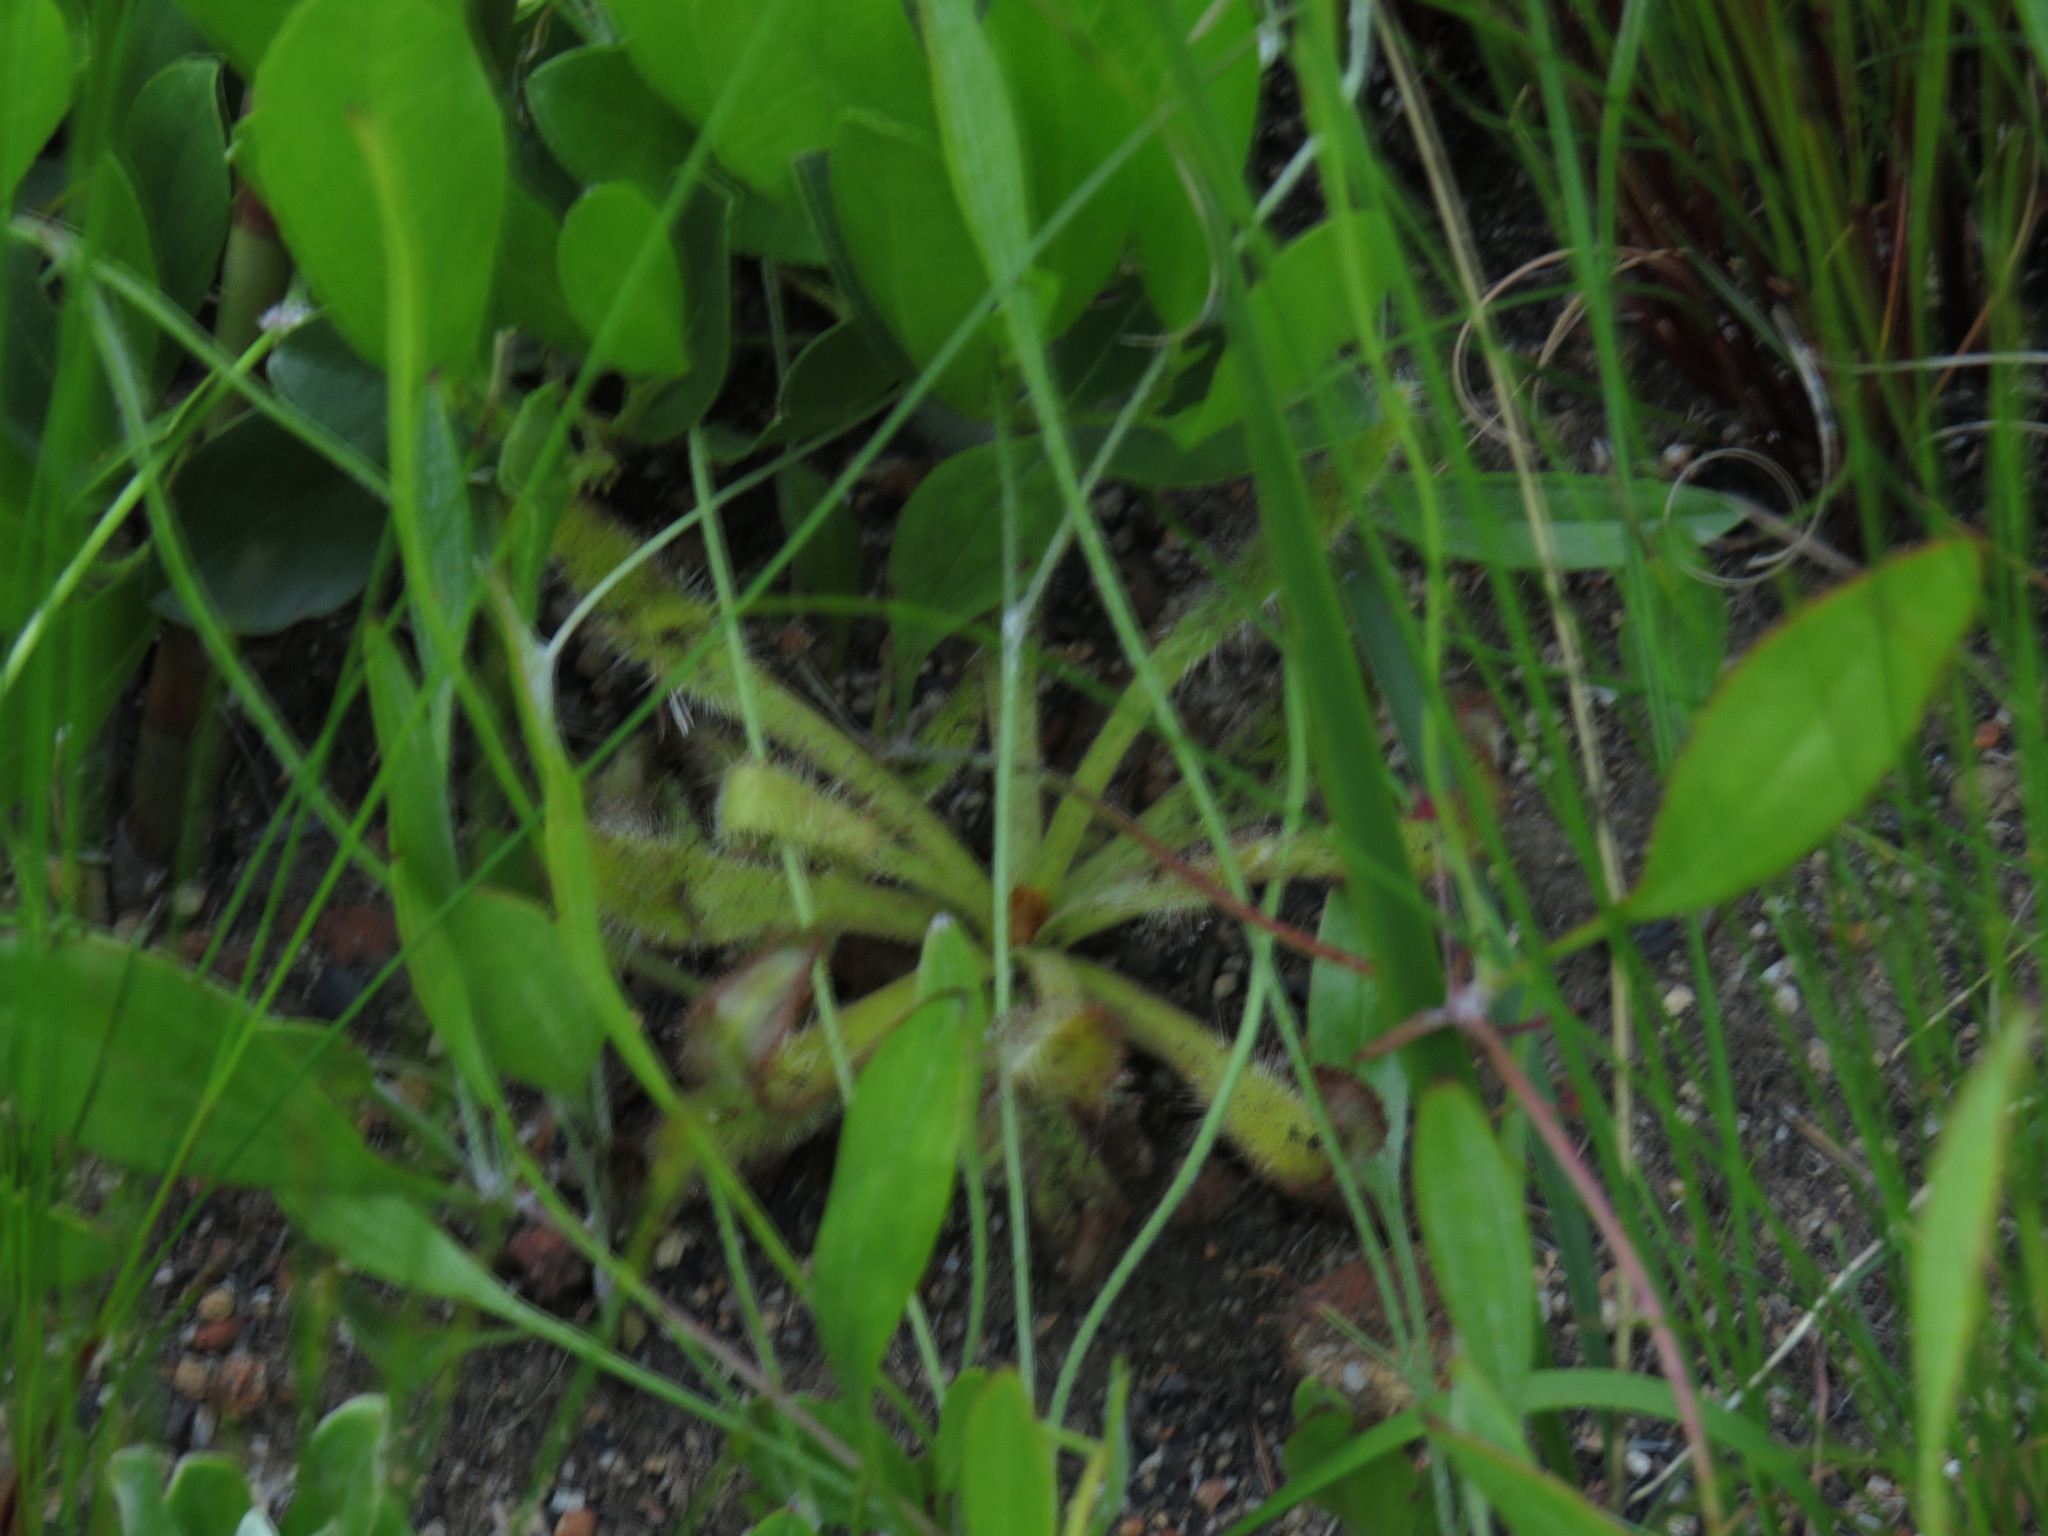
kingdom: Plantae
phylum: Tracheophyta
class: Magnoliopsida
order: Caryophyllales
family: Droseraceae
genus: Drosera
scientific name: Drosera hilaris
